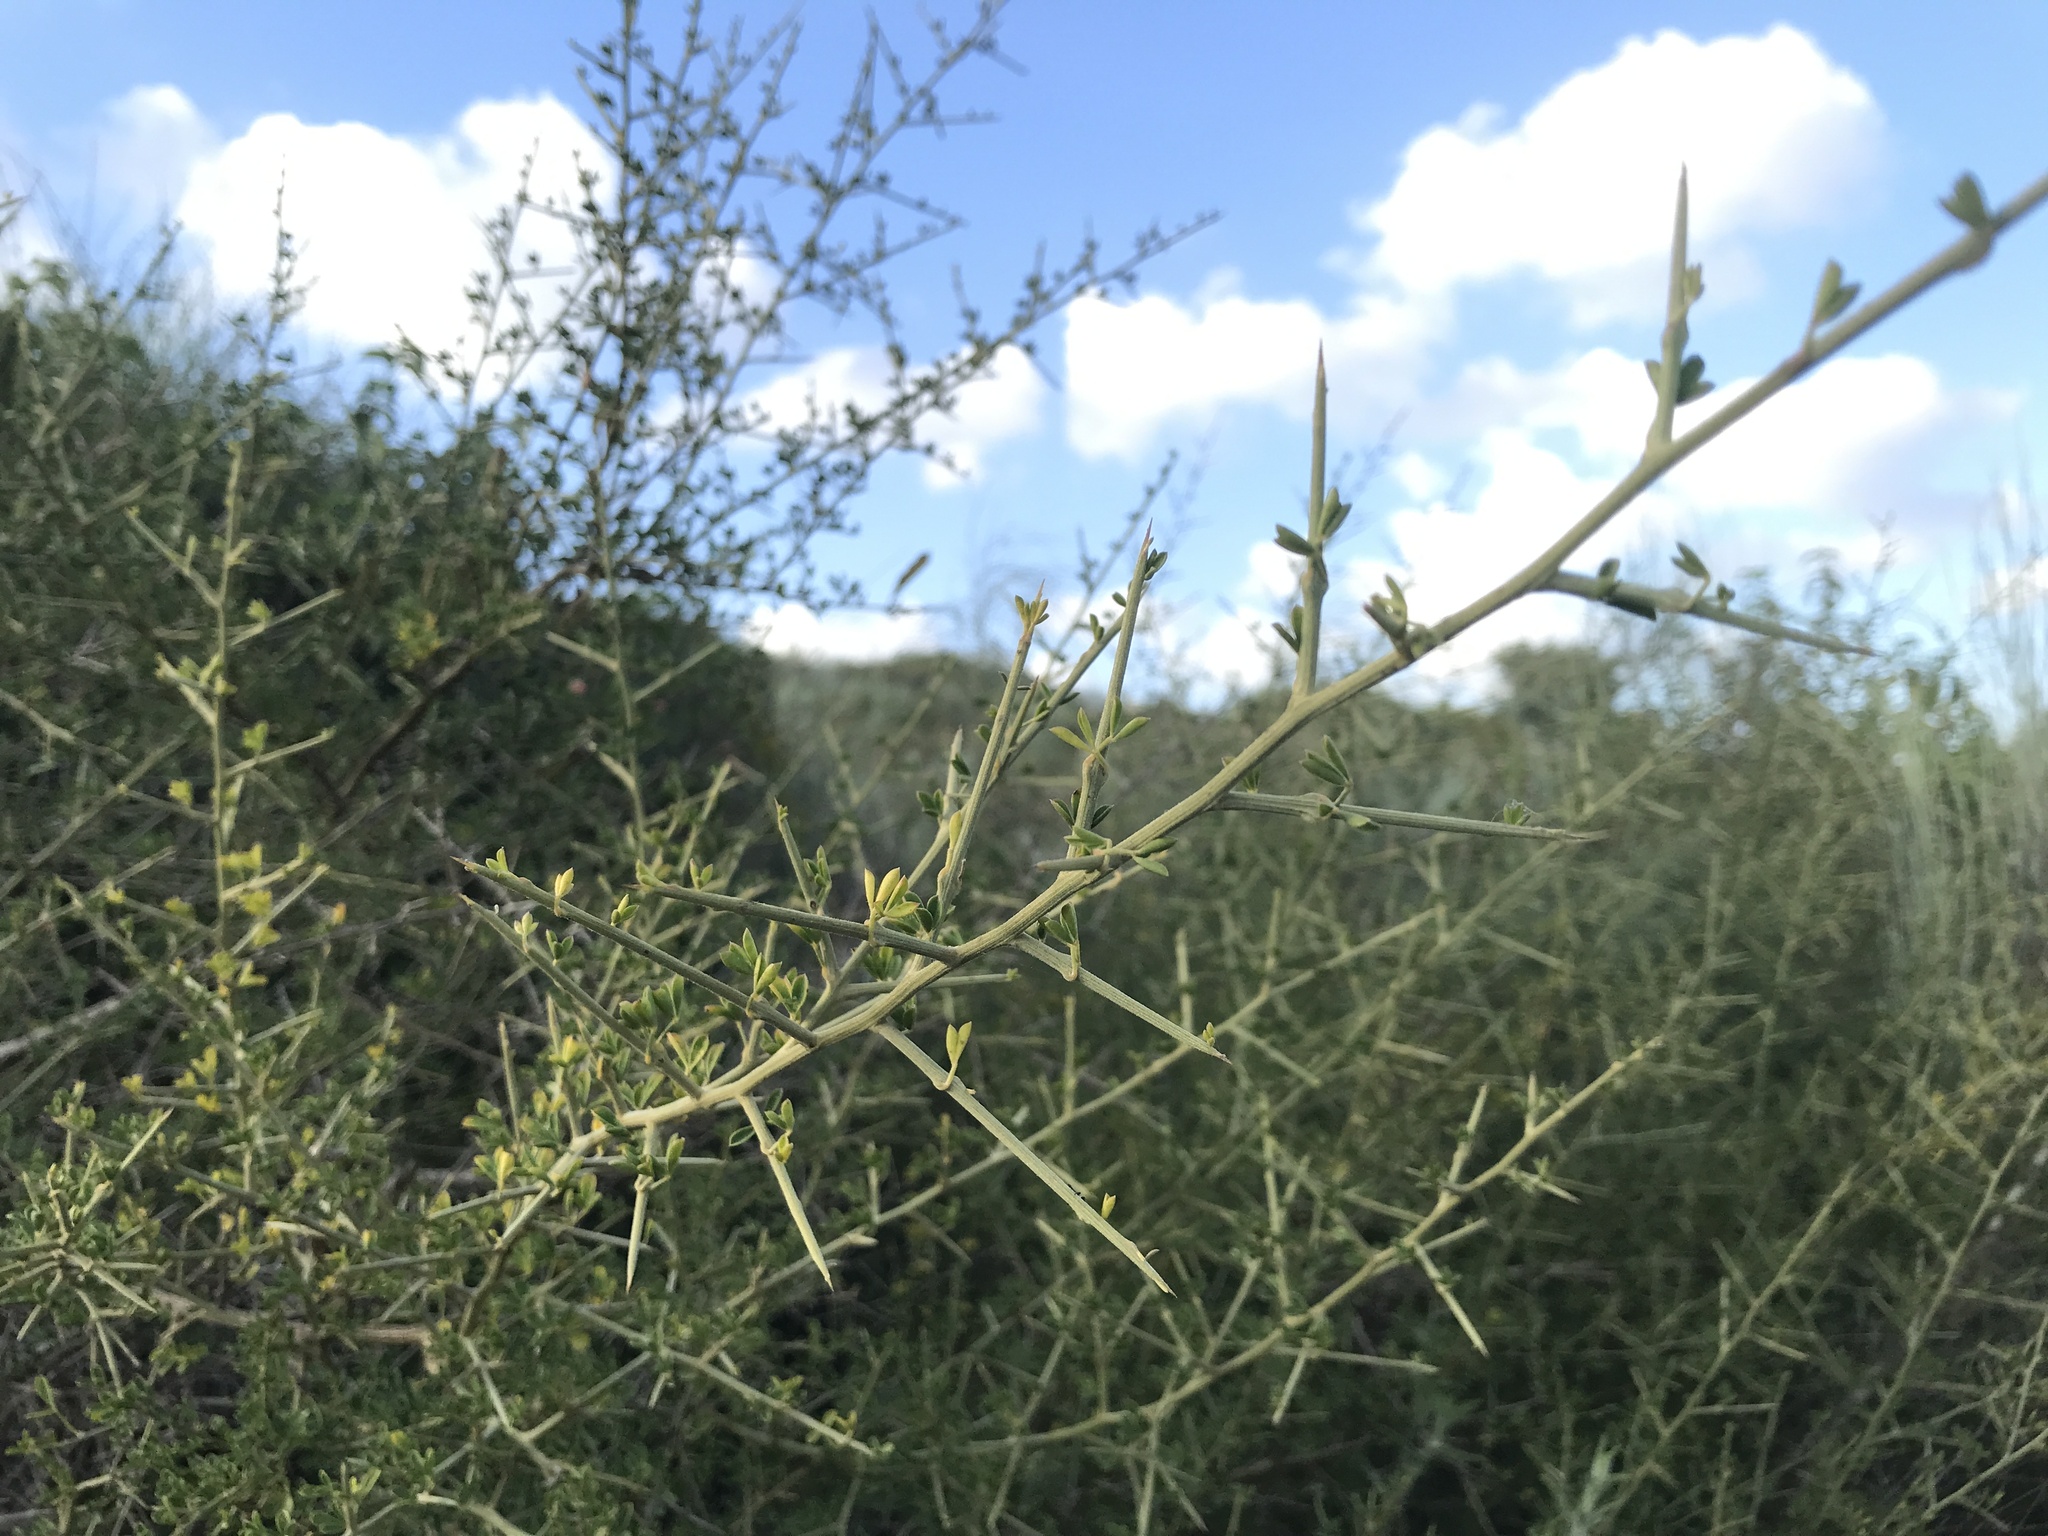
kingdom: Plantae
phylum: Tracheophyta
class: Magnoliopsida
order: Fabales
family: Fabaceae
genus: Calicotome
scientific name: Calicotome villosa
